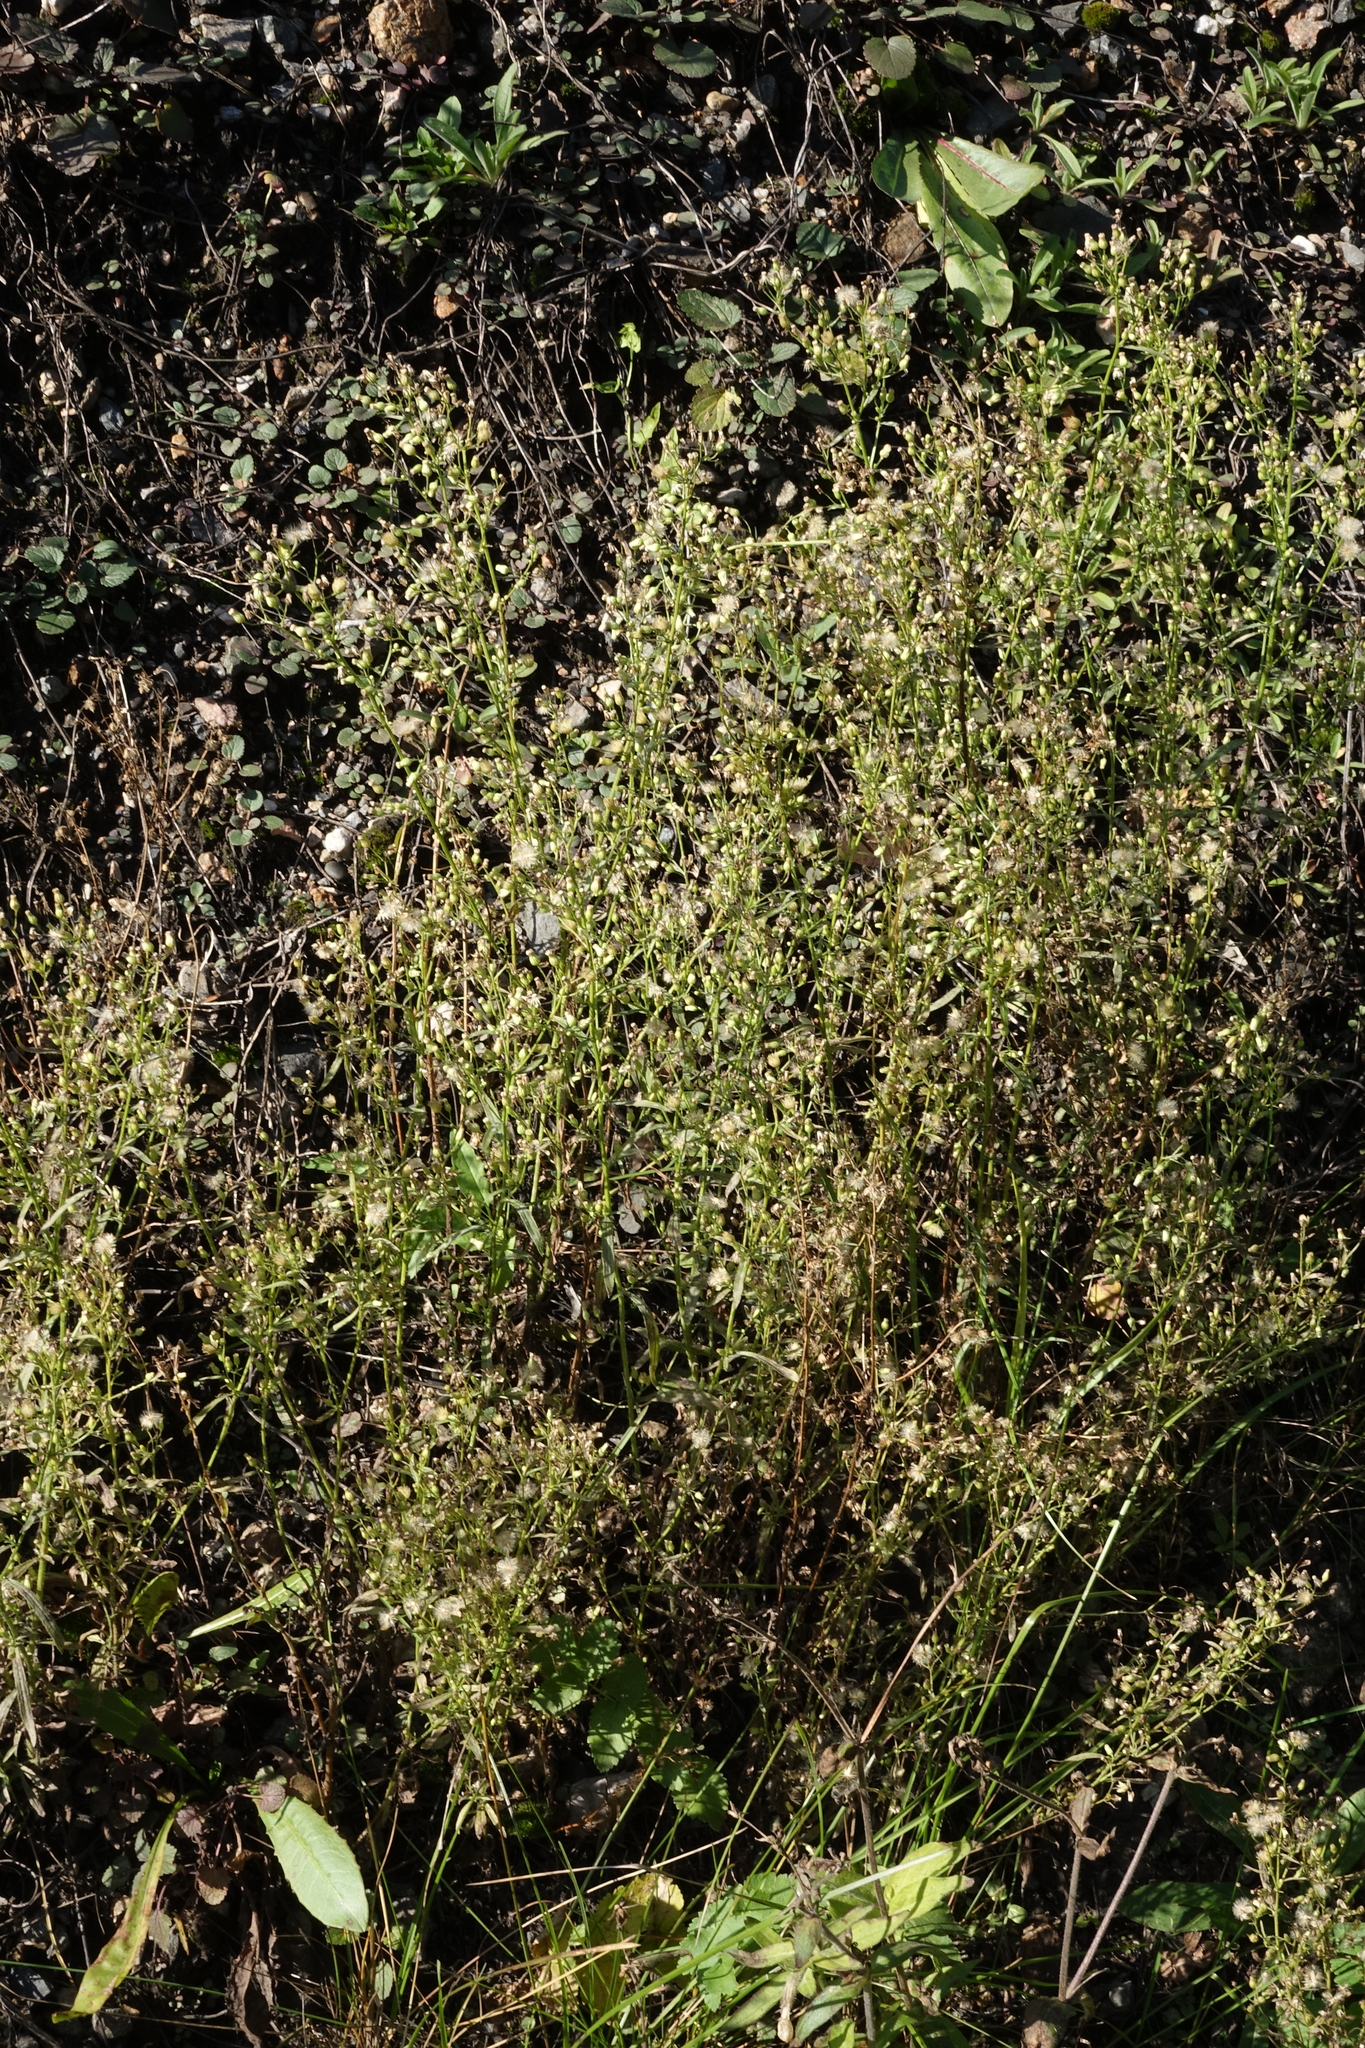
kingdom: Plantae
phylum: Tracheophyta
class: Magnoliopsida
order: Asterales
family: Asteraceae
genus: Erigeron
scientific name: Erigeron canadensis
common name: Canadian fleabane
